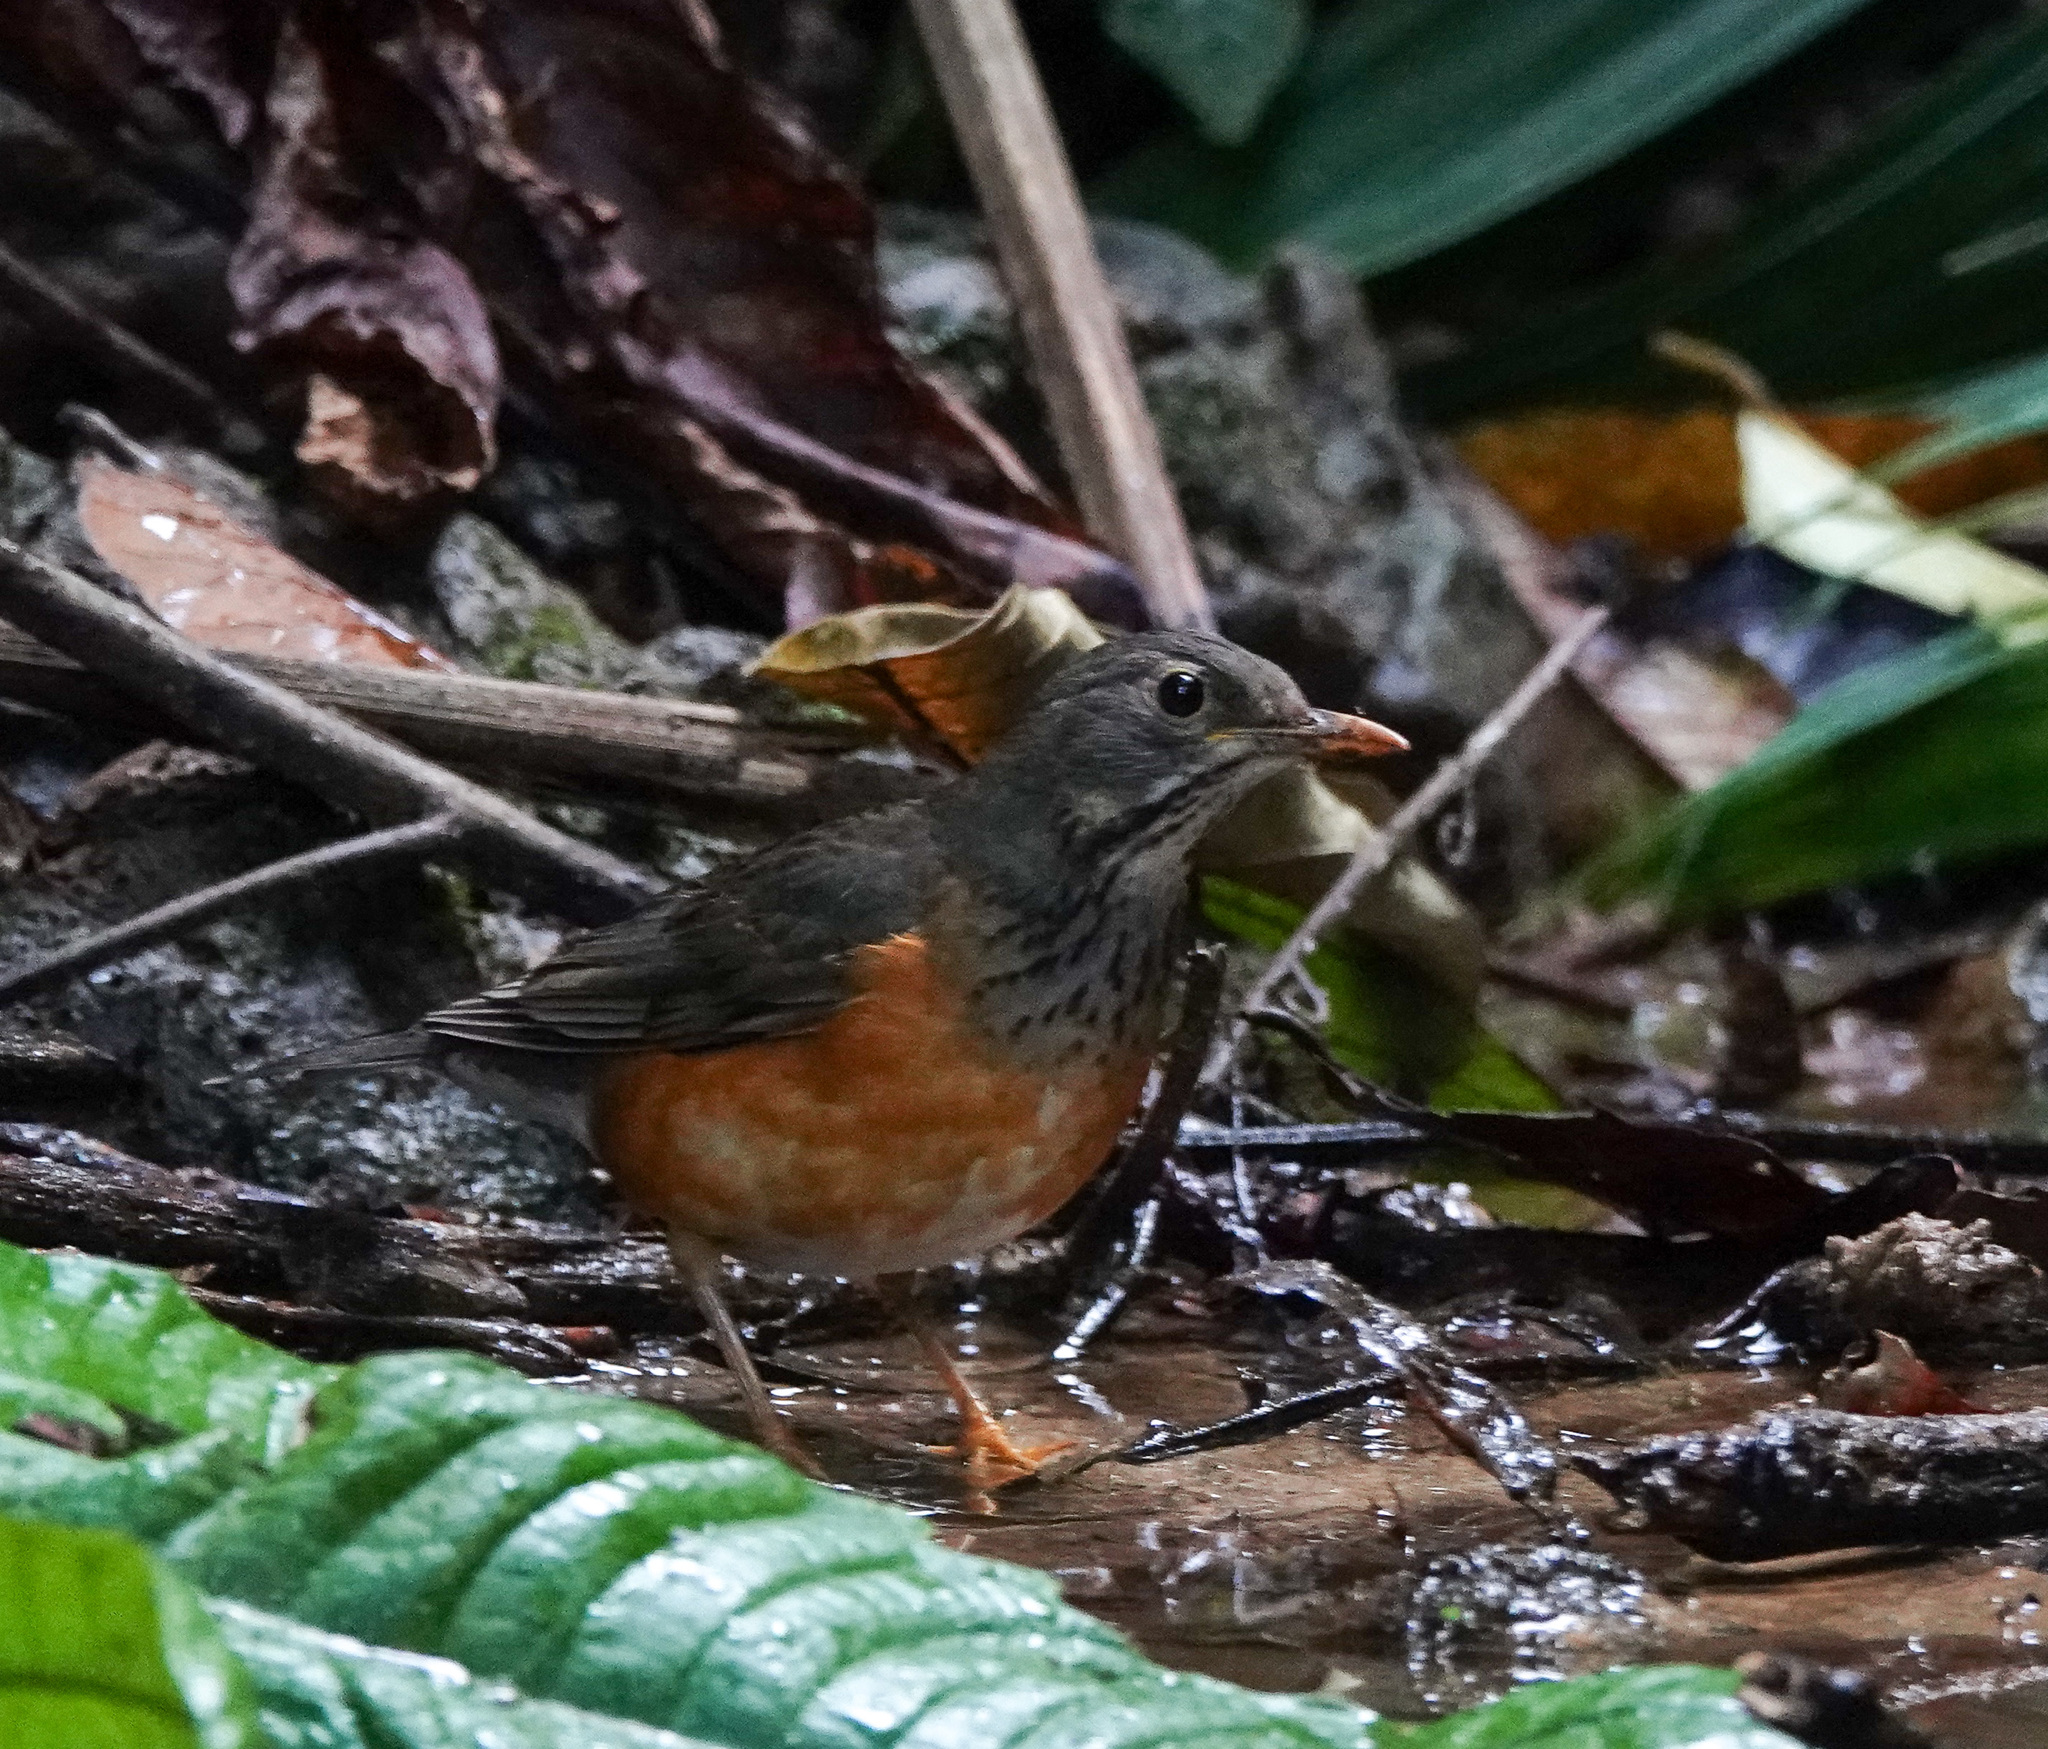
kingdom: Animalia
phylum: Chordata
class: Aves
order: Passeriformes
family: Turdidae
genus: Turdus
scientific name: Turdus dissimilis
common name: Black-breasted thrush
